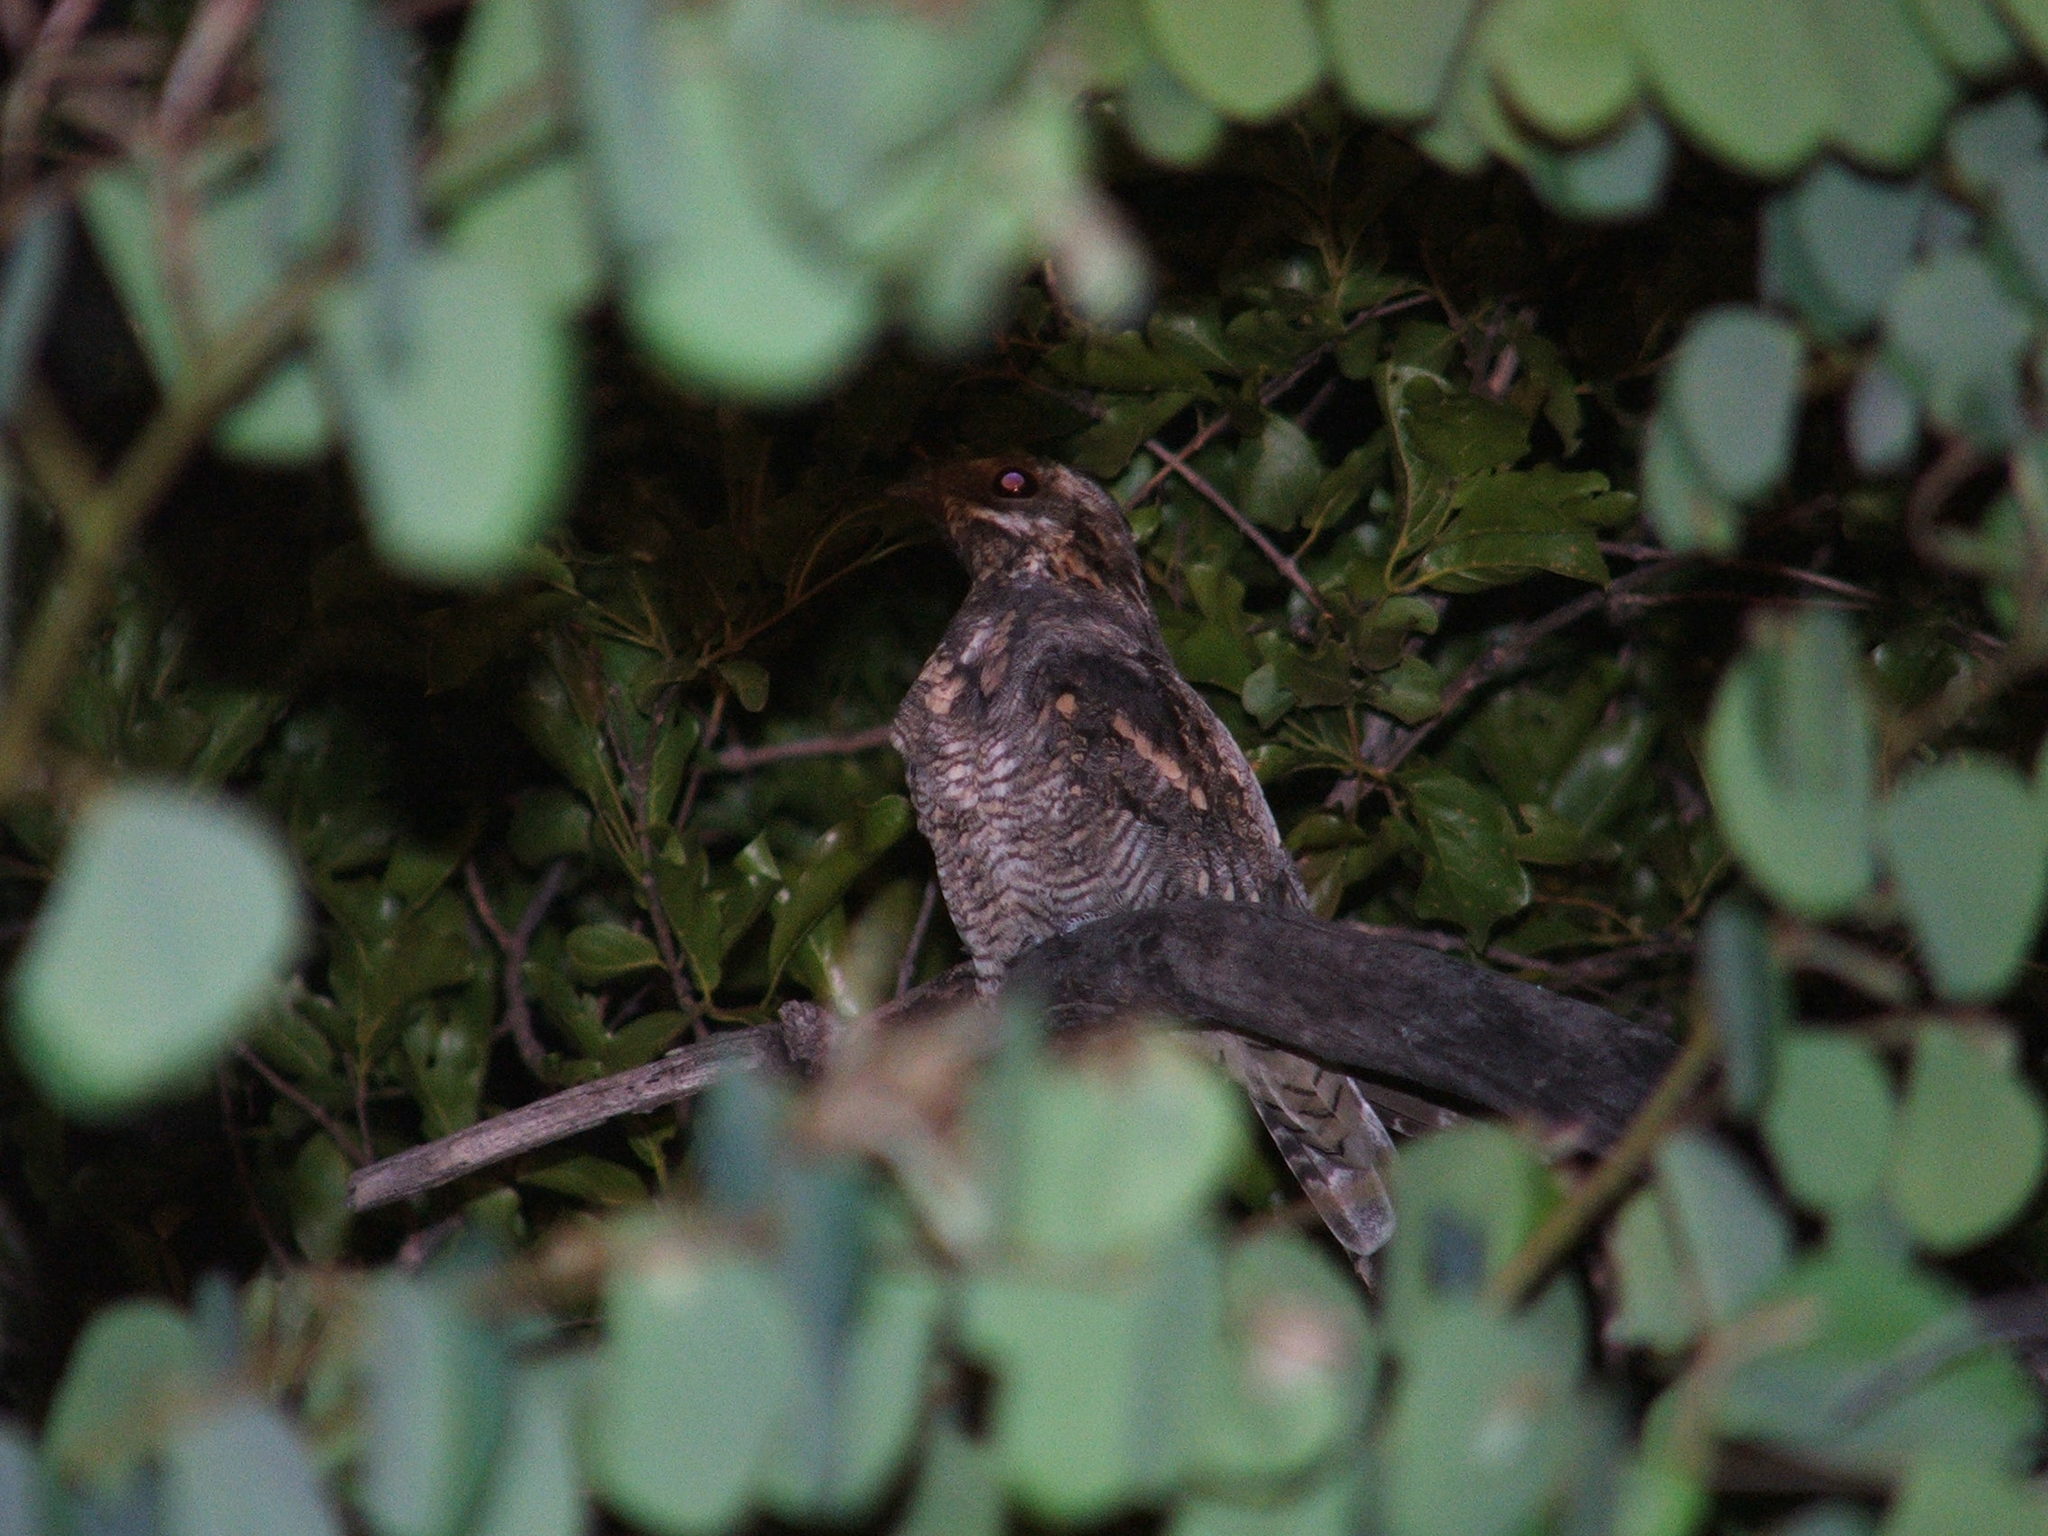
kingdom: Animalia
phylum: Chordata
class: Aves
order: Caprimulgiformes
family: Caprimulgidae
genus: Caprimulgus
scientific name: Caprimulgus pectoralis
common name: Fiery-necked nightjar
